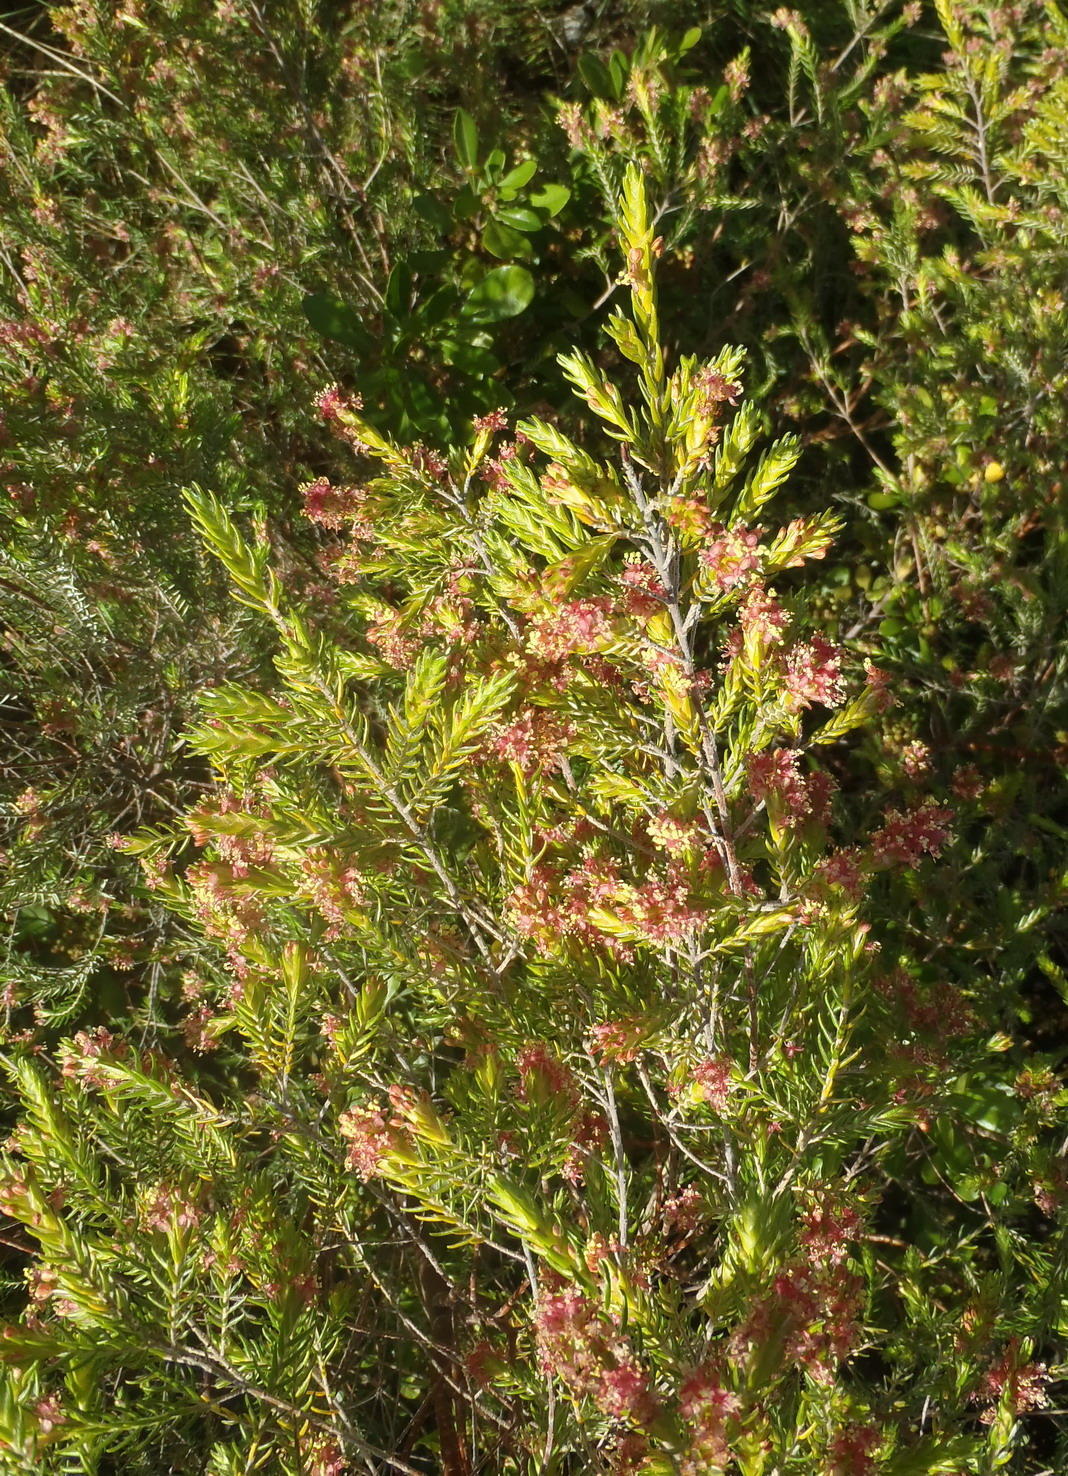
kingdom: Plantae
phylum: Tracheophyta
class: Magnoliopsida
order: Malvales
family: Thymelaeaceae
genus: Passerina
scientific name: Passerina rigida
